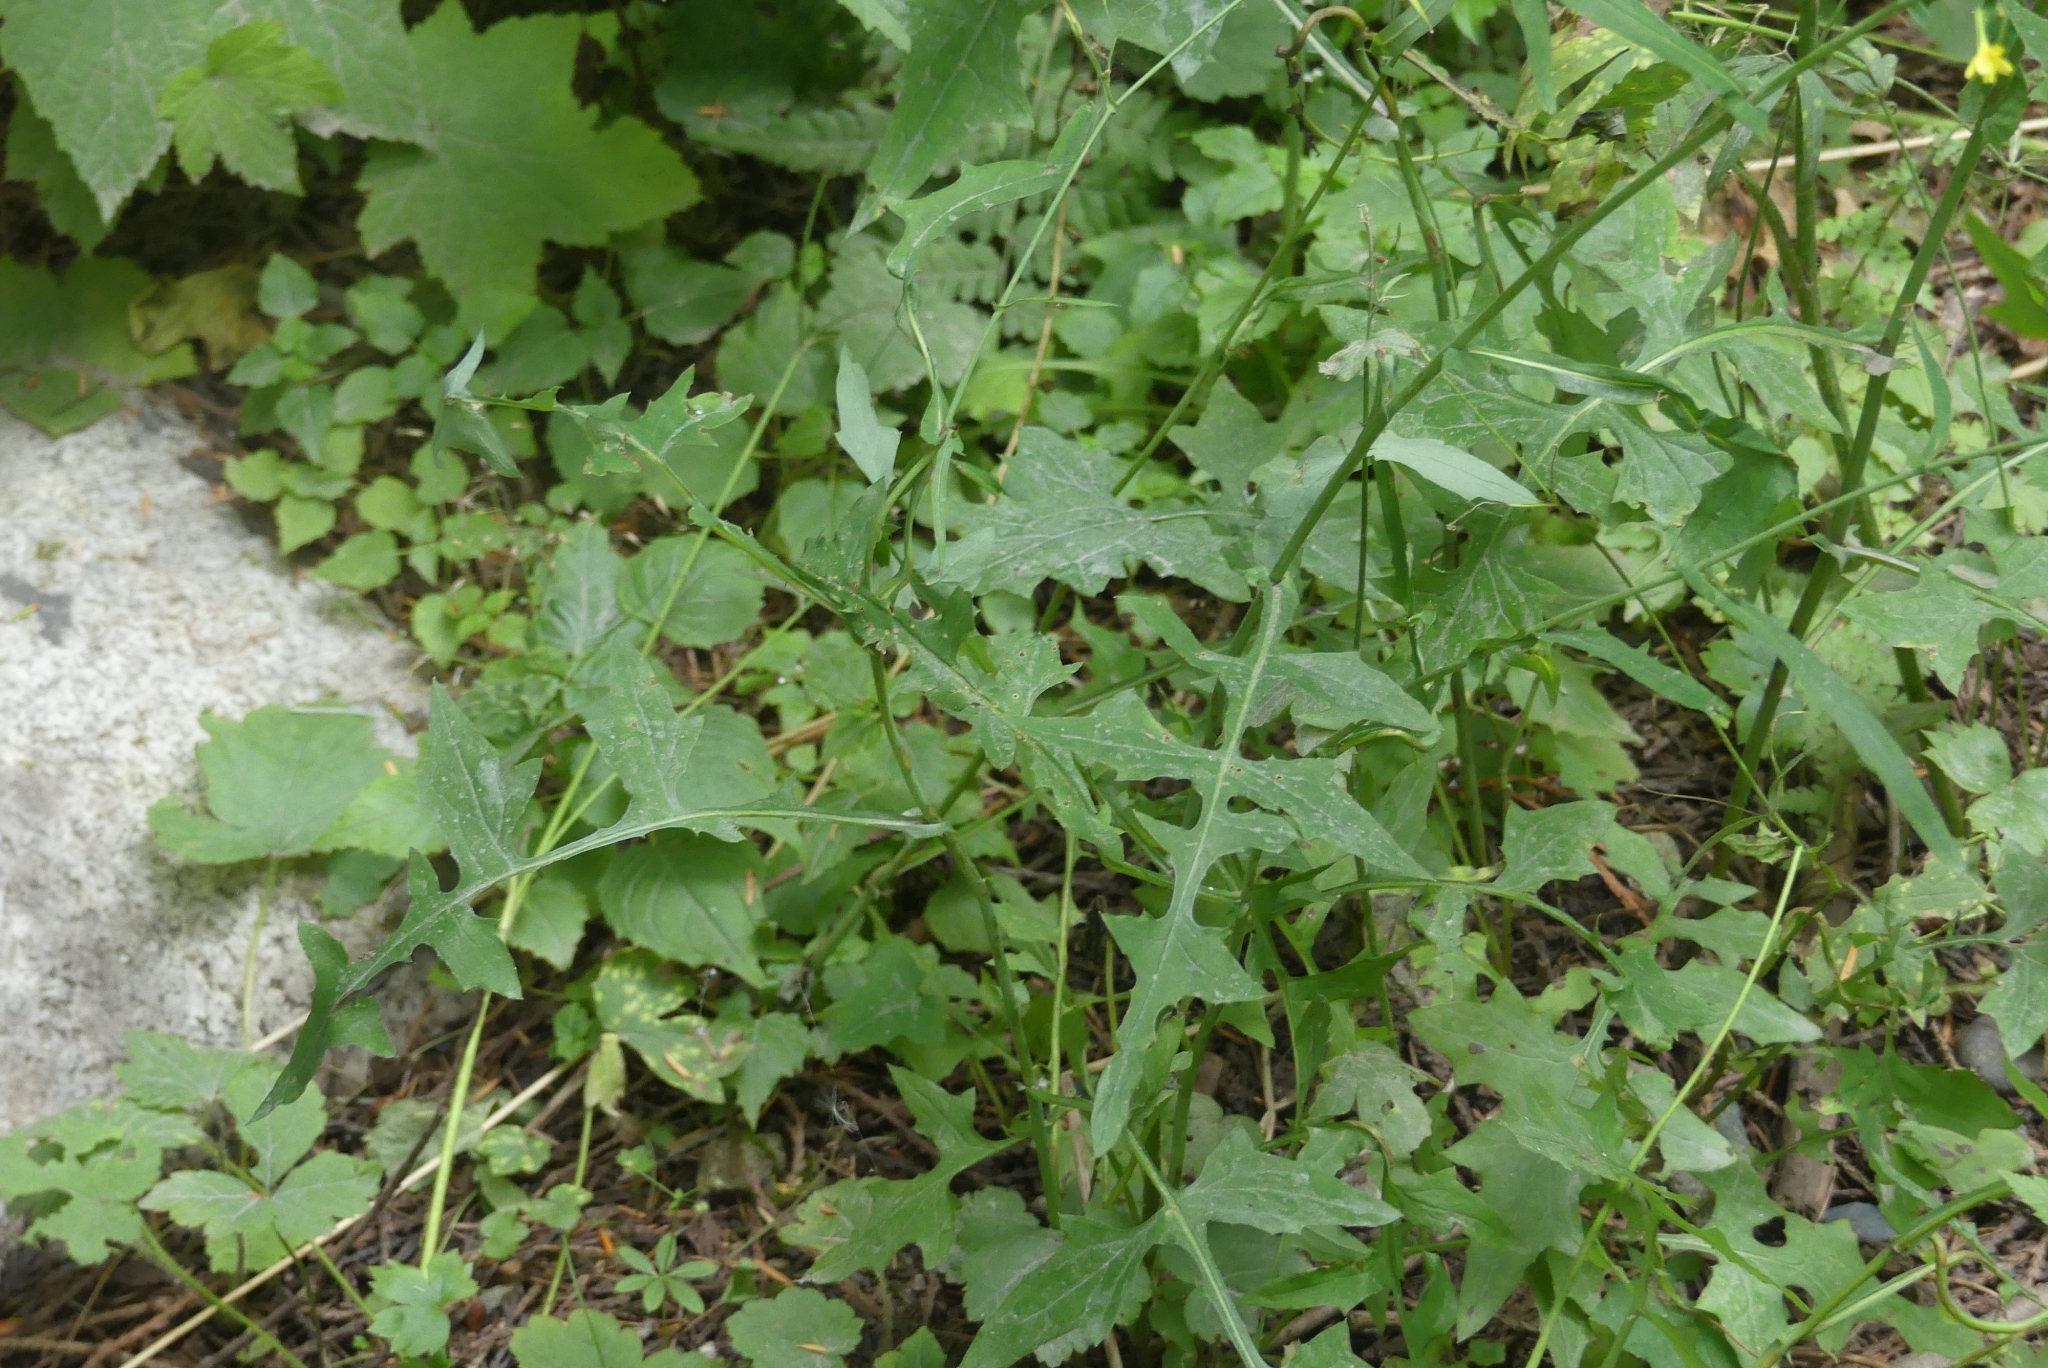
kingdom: Plantae
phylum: Tracheophyta
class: Magnoliopsida
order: Asterales
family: Asteraceae
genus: Mycelis
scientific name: Mycelis muralis
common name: Wall lettuce
